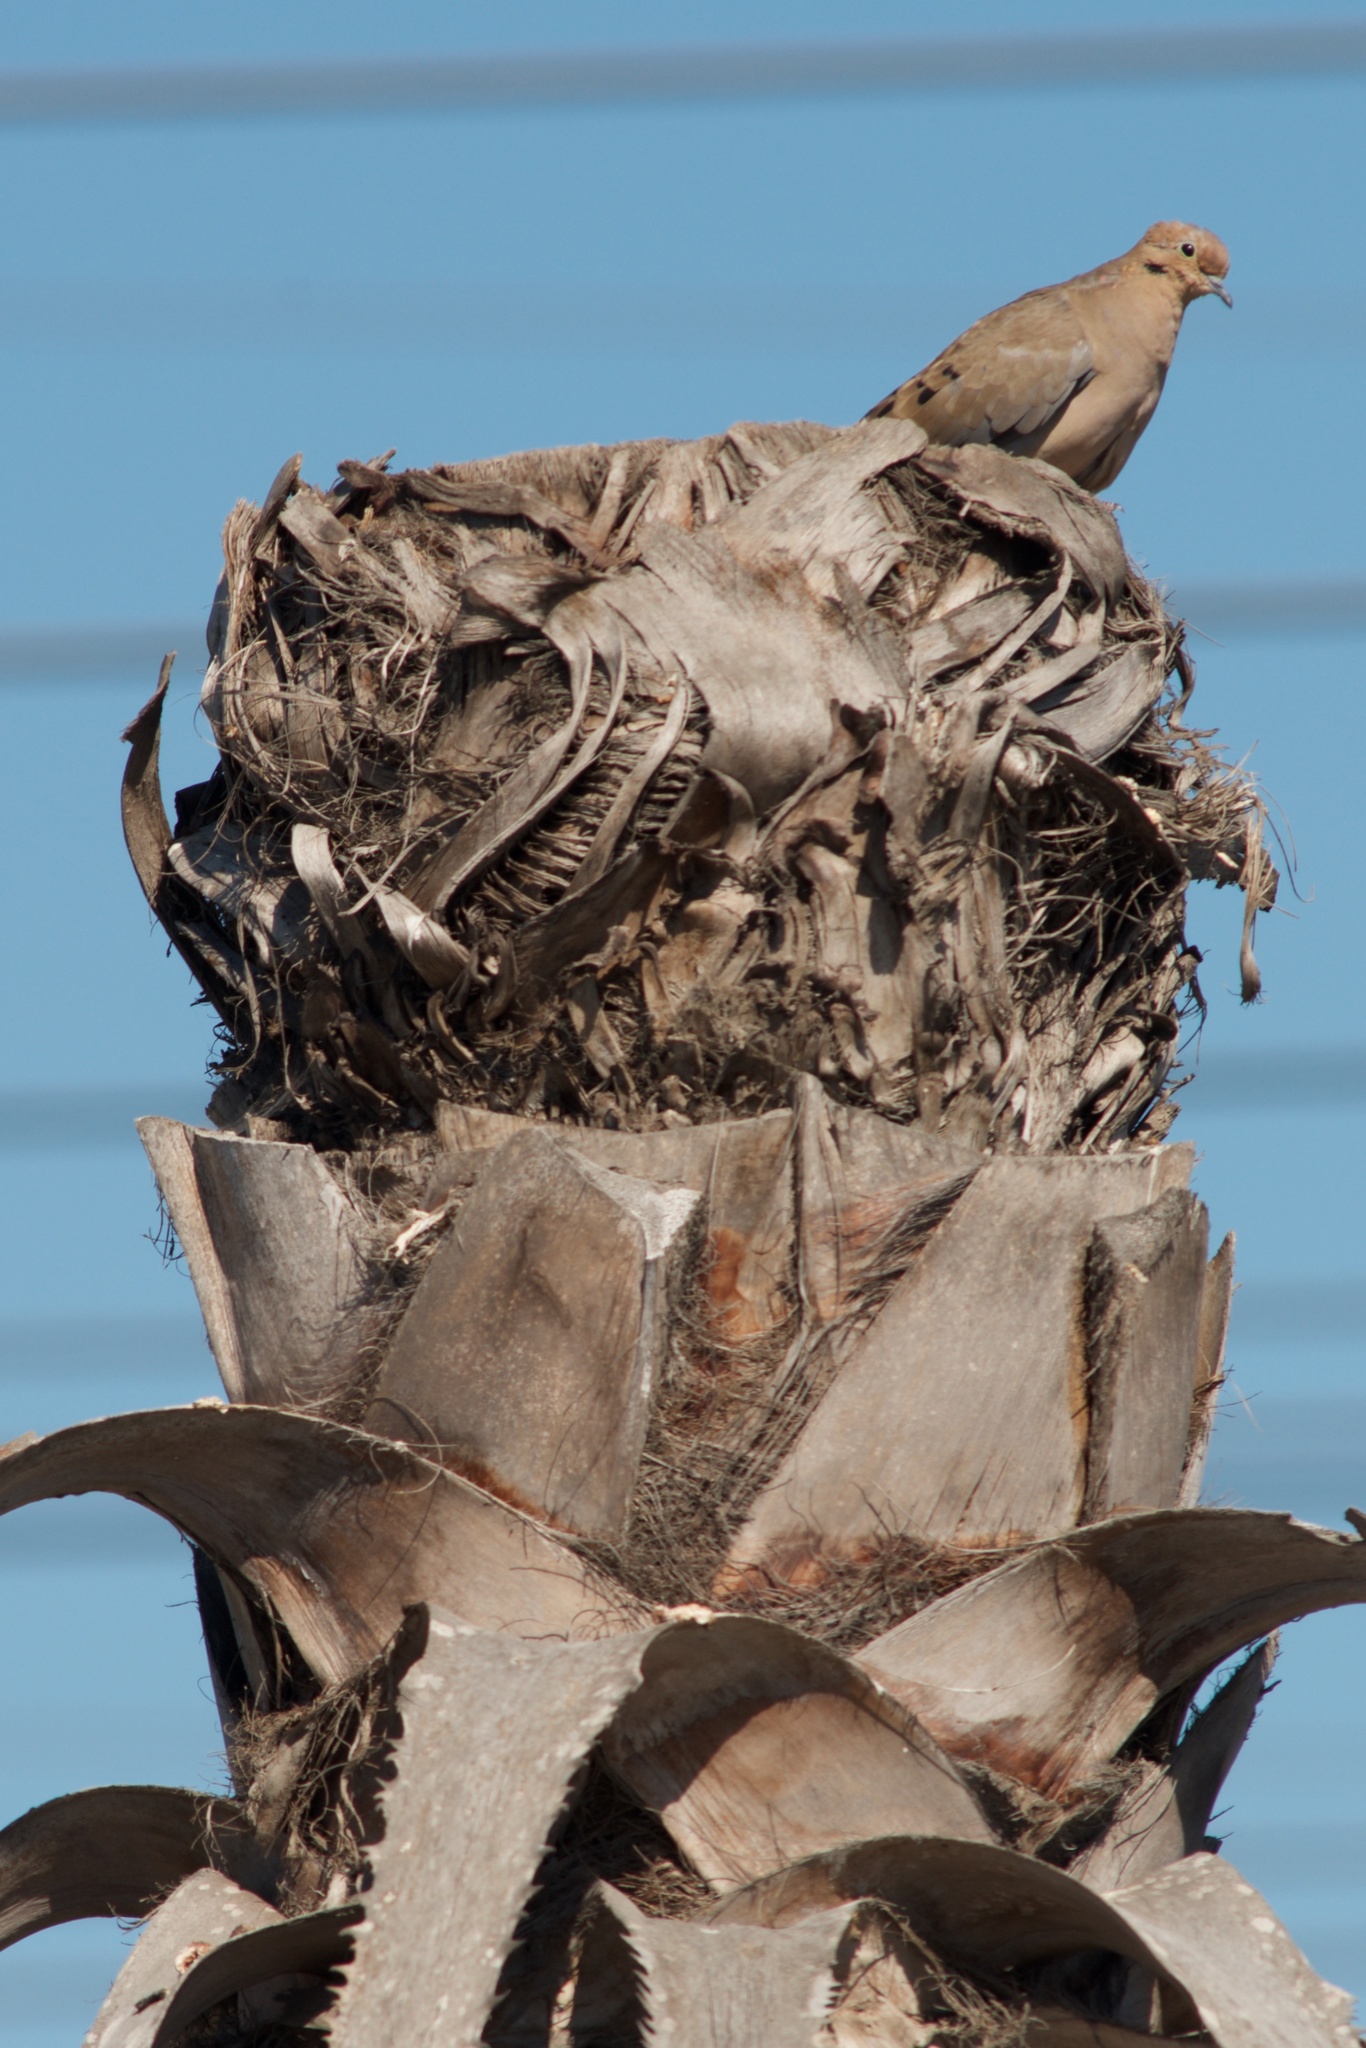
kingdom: Animalia
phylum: Chordata
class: Aves
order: Columbiformes
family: Columbidae
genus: Zenaida
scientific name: Zenaida macroura
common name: Mourning dove
